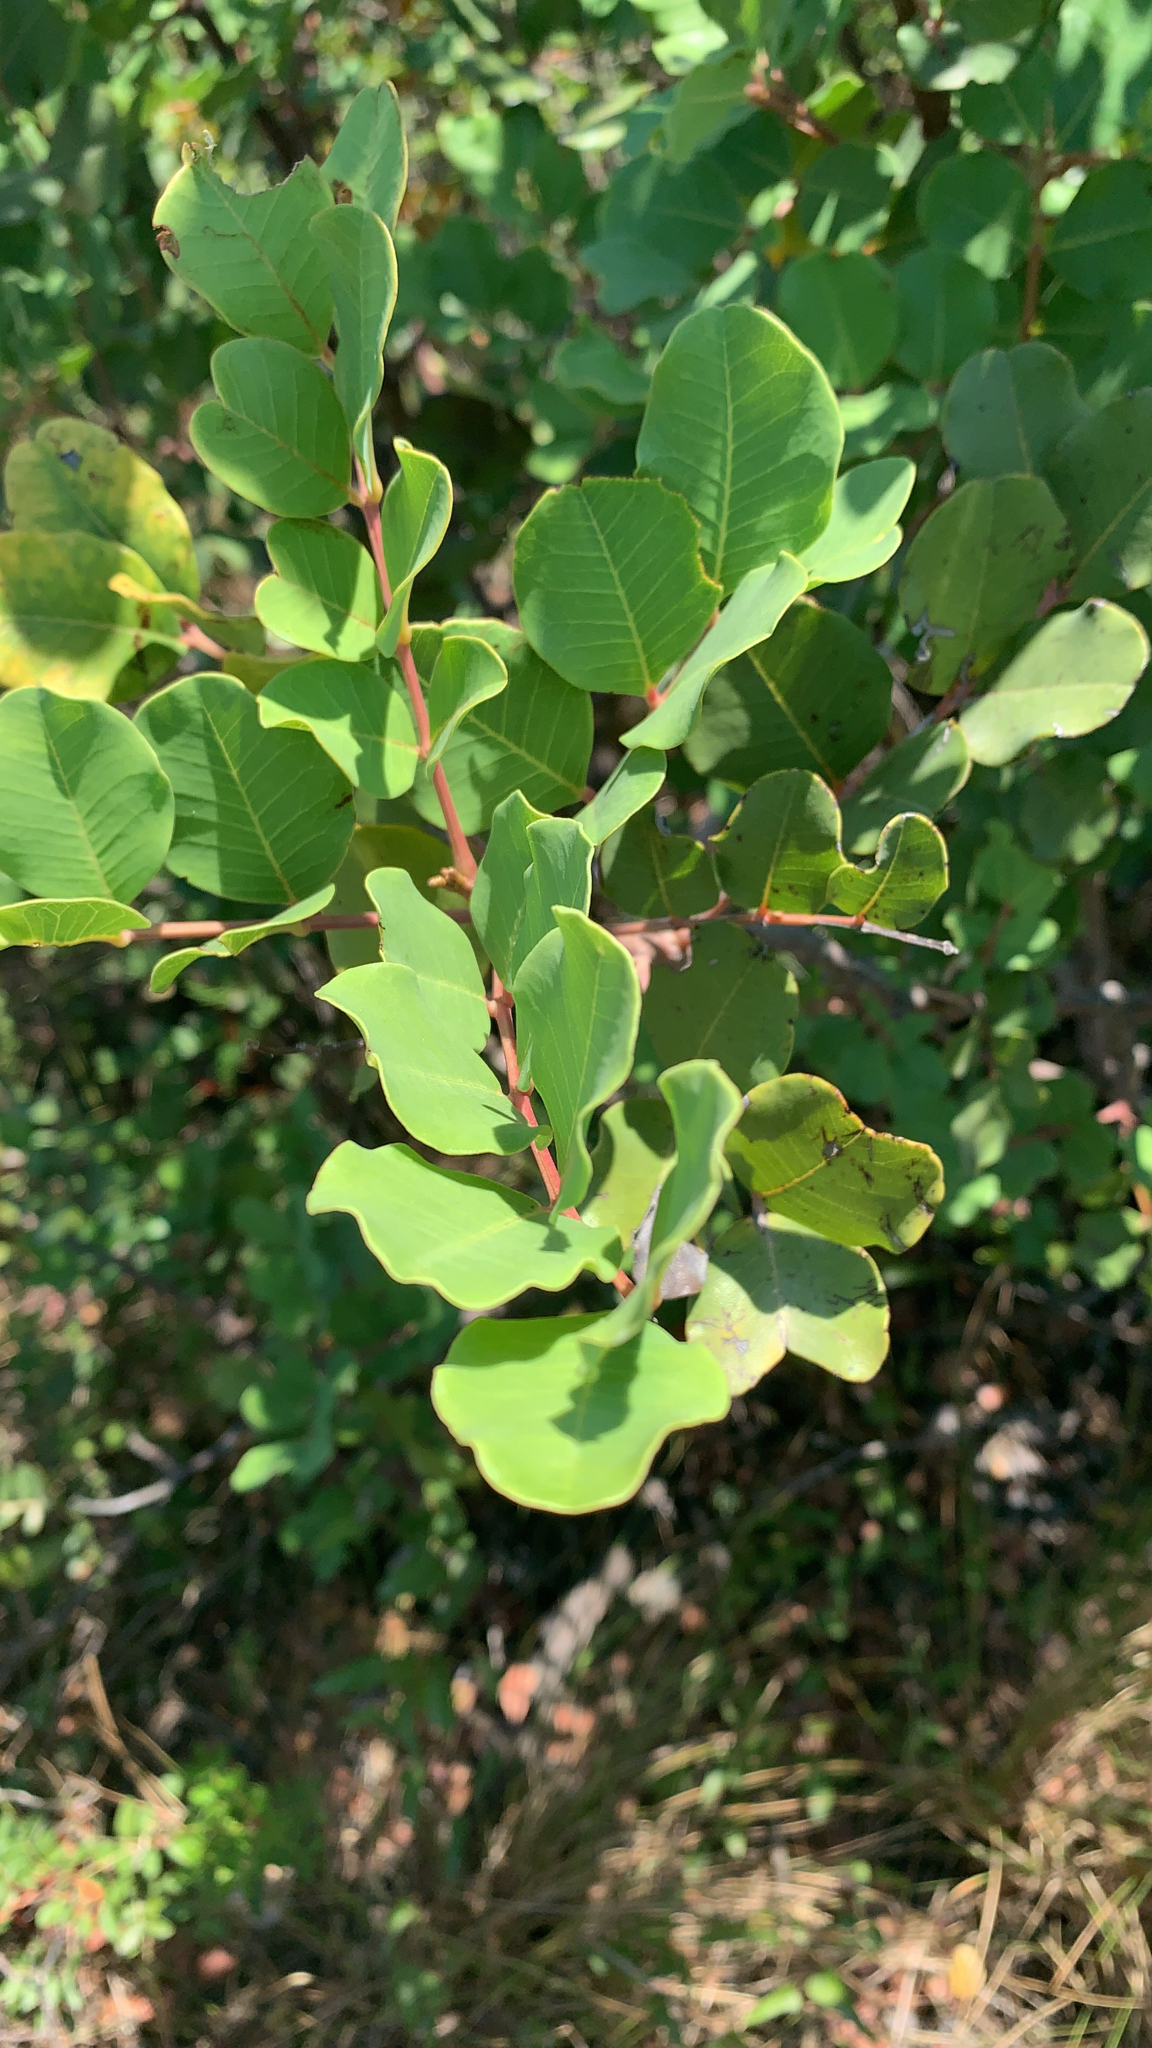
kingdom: Plantae
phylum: Tracheophyta
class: Magnoliopsida
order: Fabales
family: Fabaceae
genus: Ceratonia
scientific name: Ceratonia siliqua
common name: Carob
